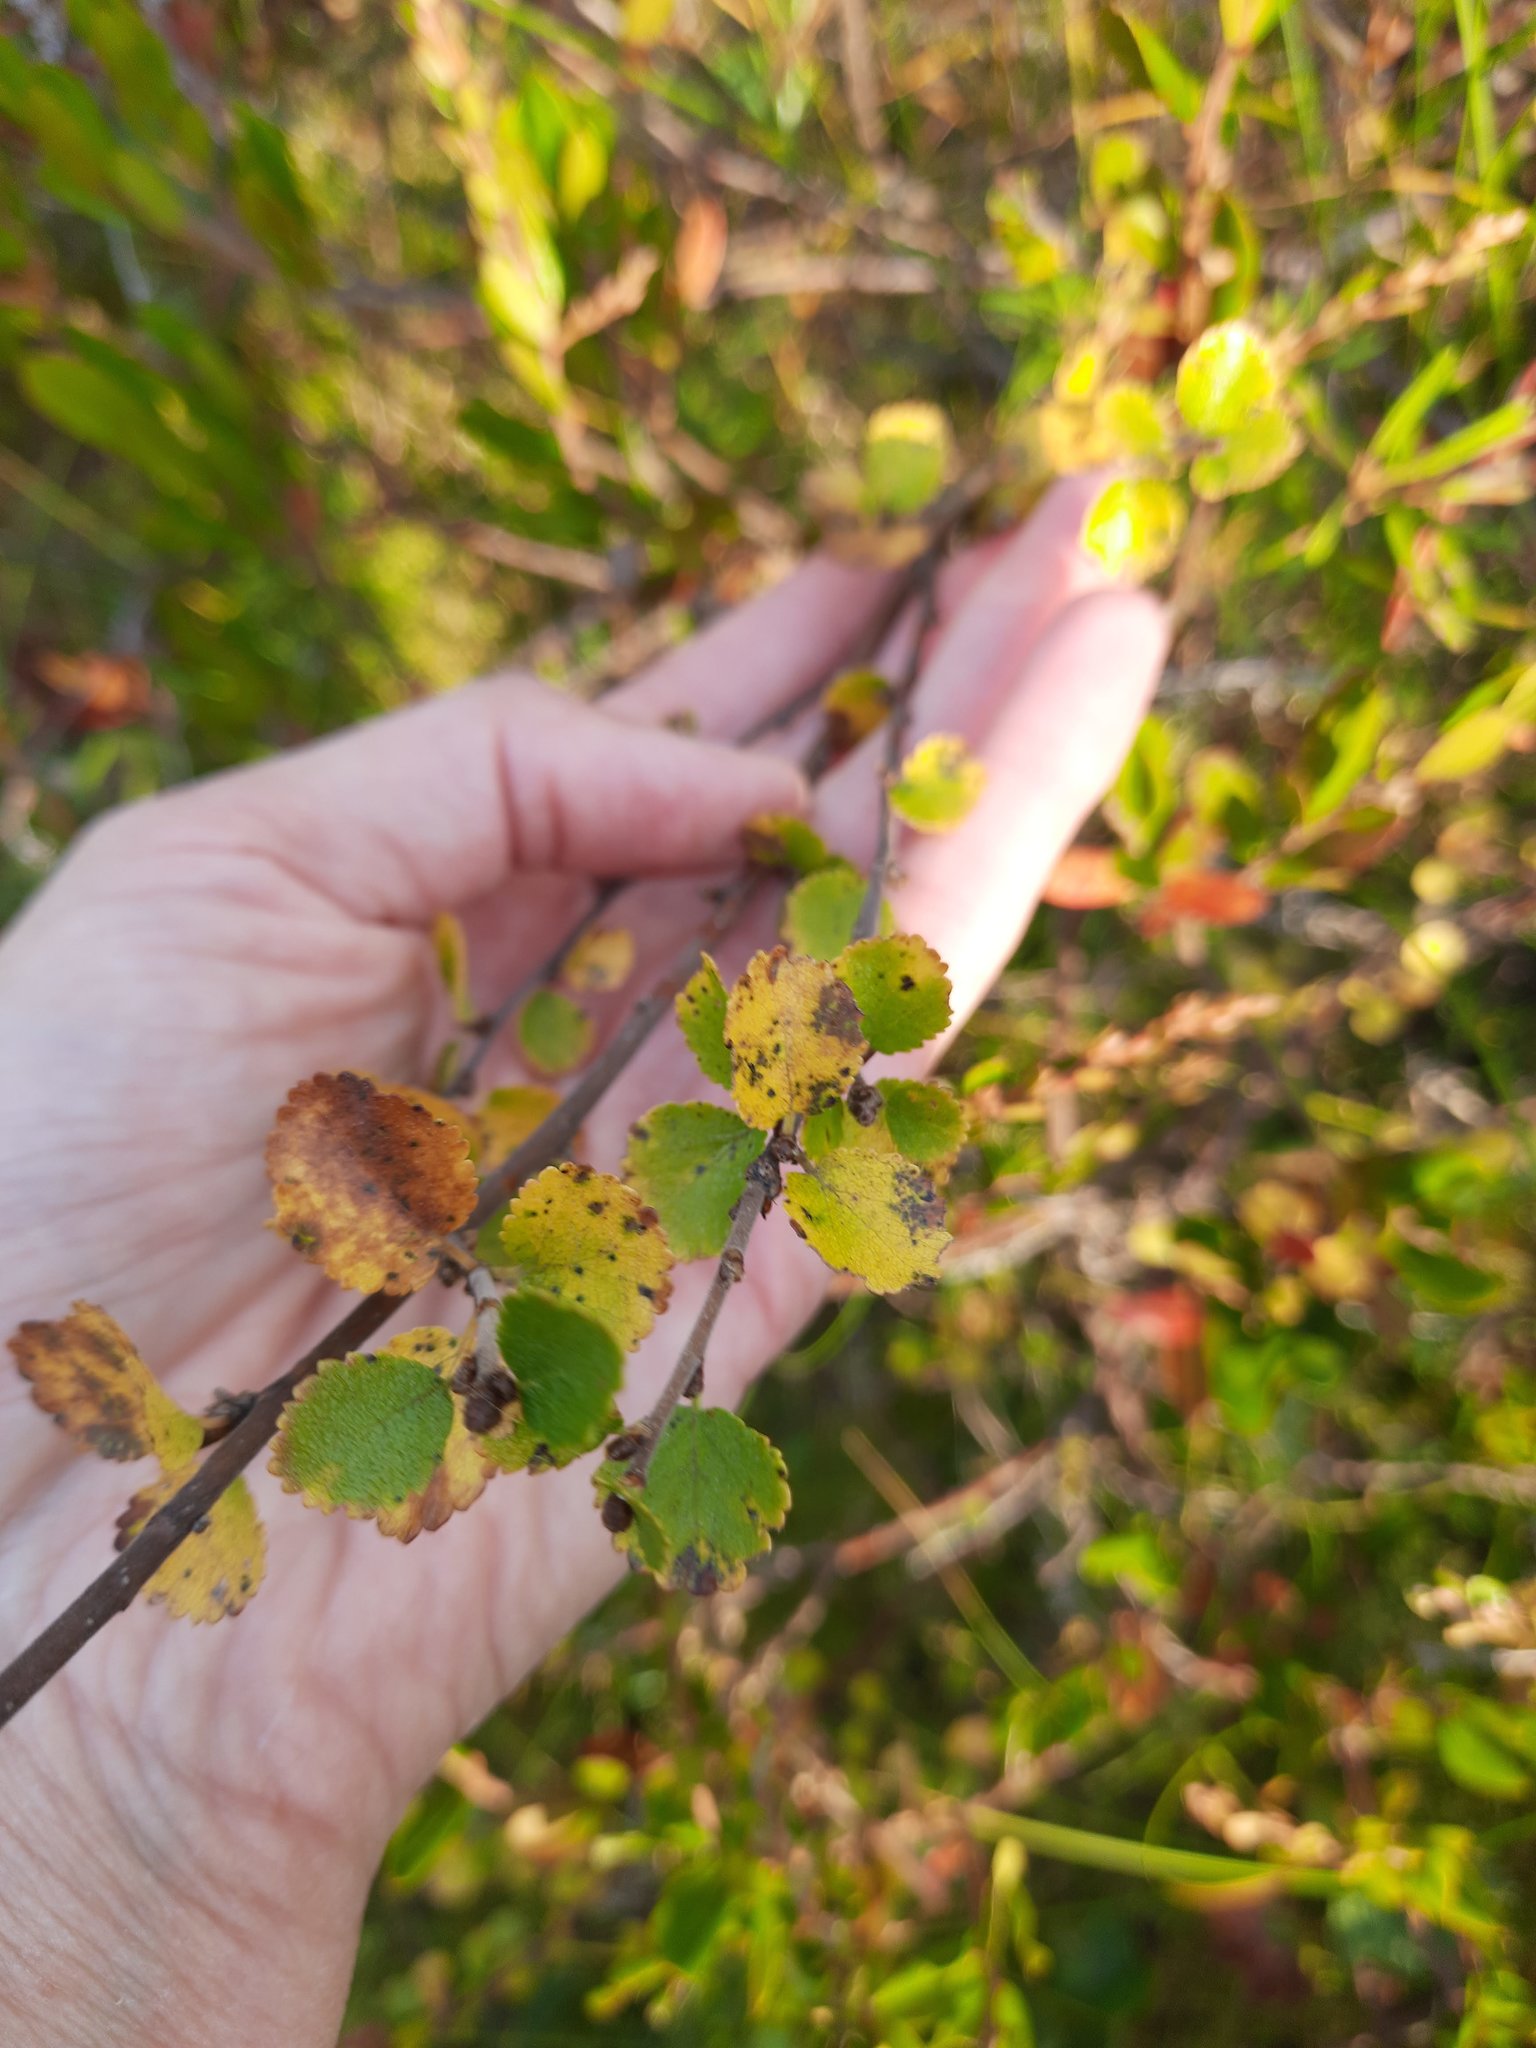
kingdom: Plantae
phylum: Tracheophyta
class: Magnoliopsida
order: Fagales
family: Betulaceae
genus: Betula
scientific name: Betula nana
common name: Arctic dwarf birch
